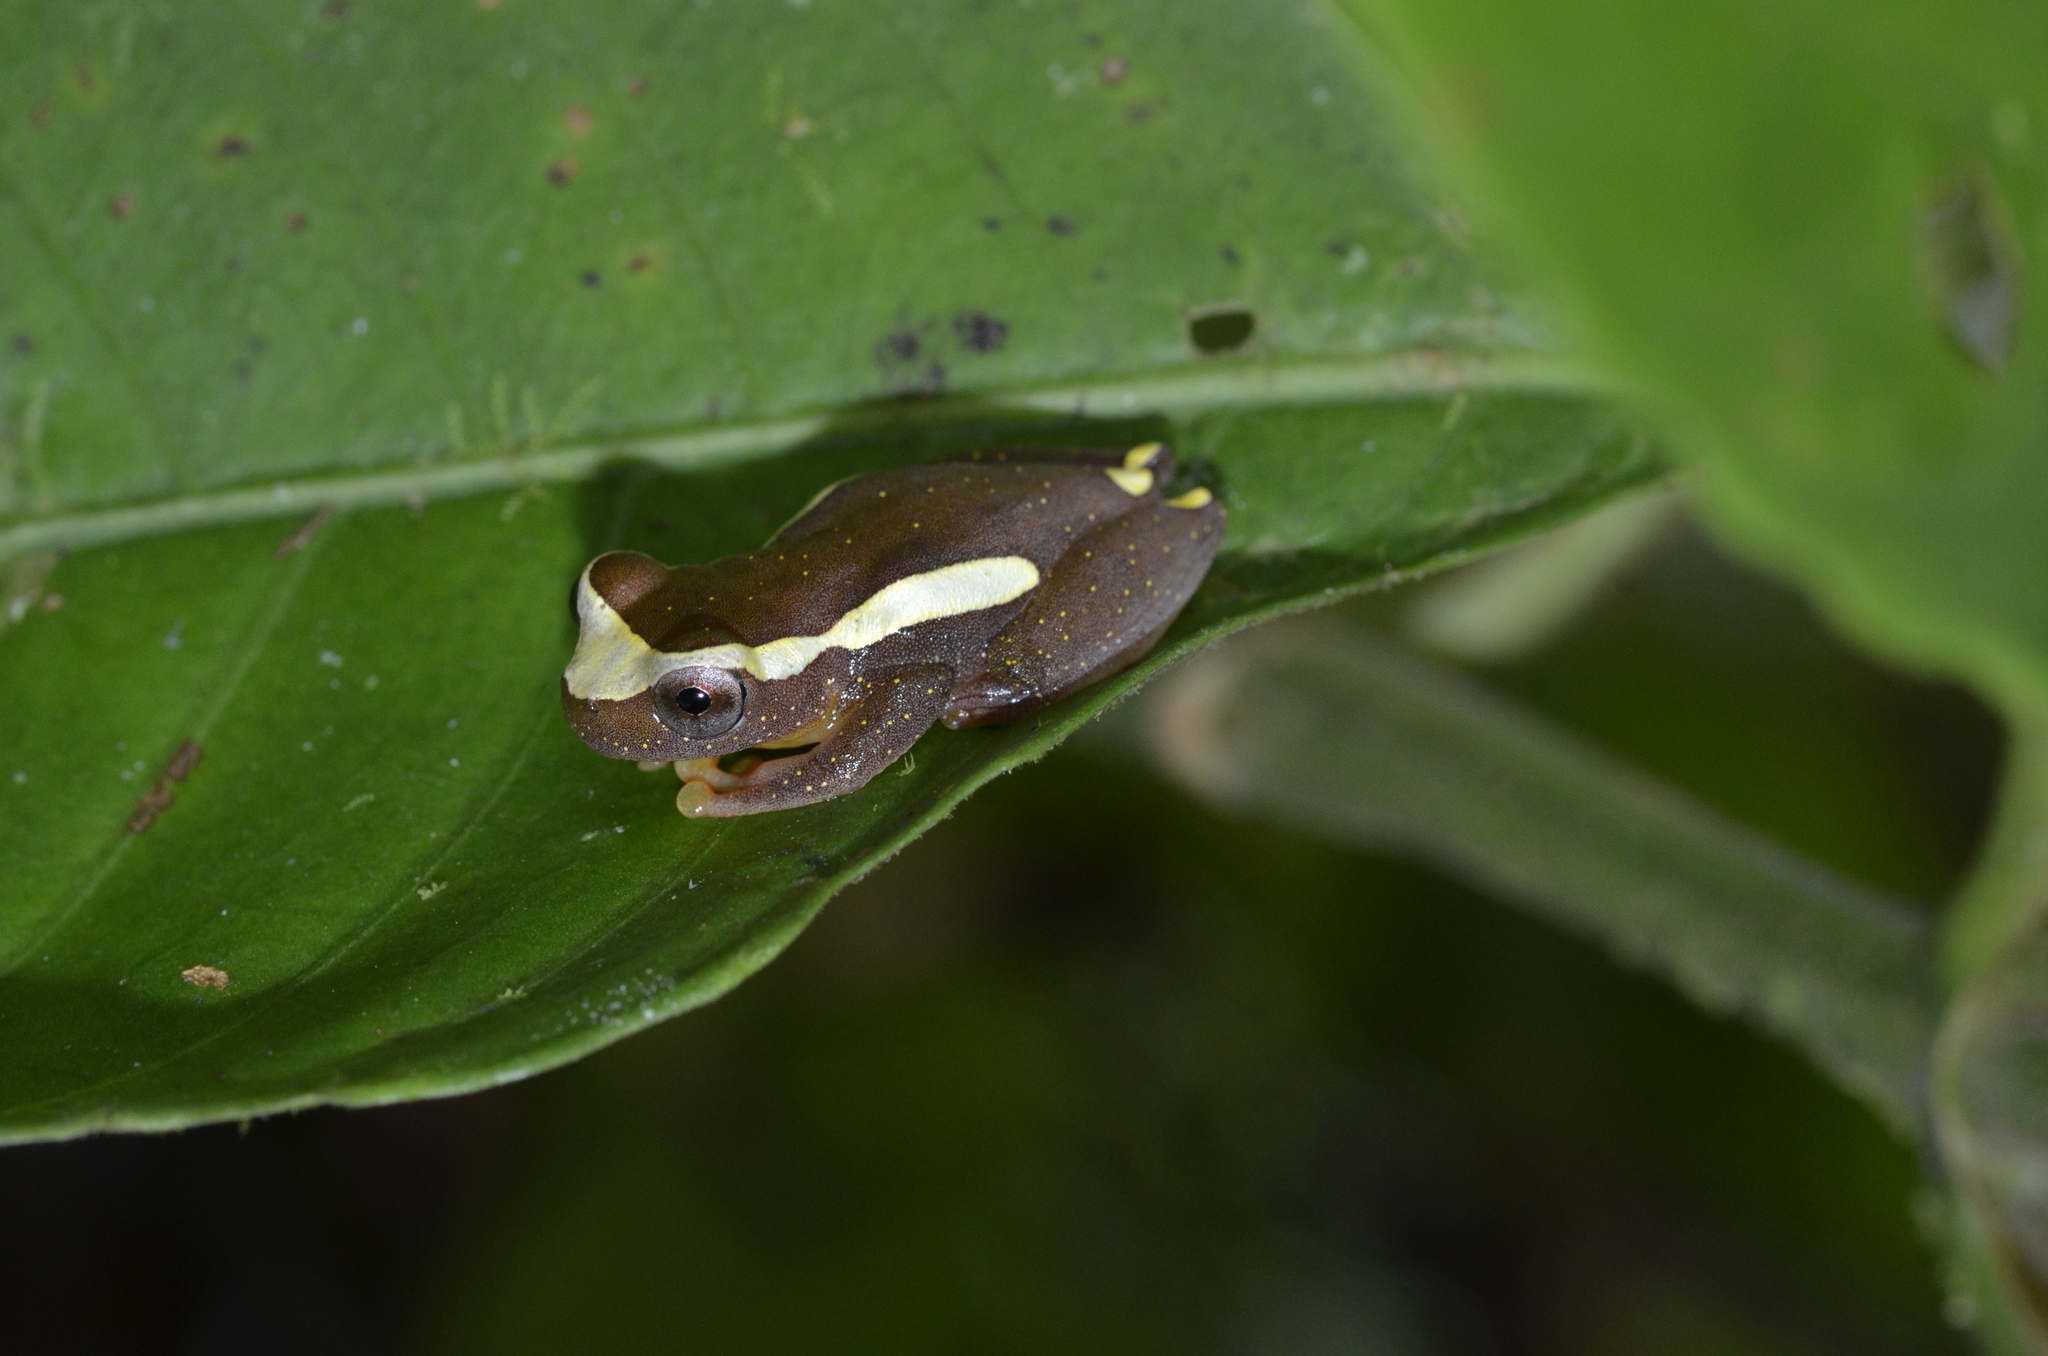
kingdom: Animalia
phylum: Chordata
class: Amphibia
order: Anura
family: Hylidae
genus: Dendropsophus
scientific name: Dendropsophus bifurcus
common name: Two-lined treefrog
